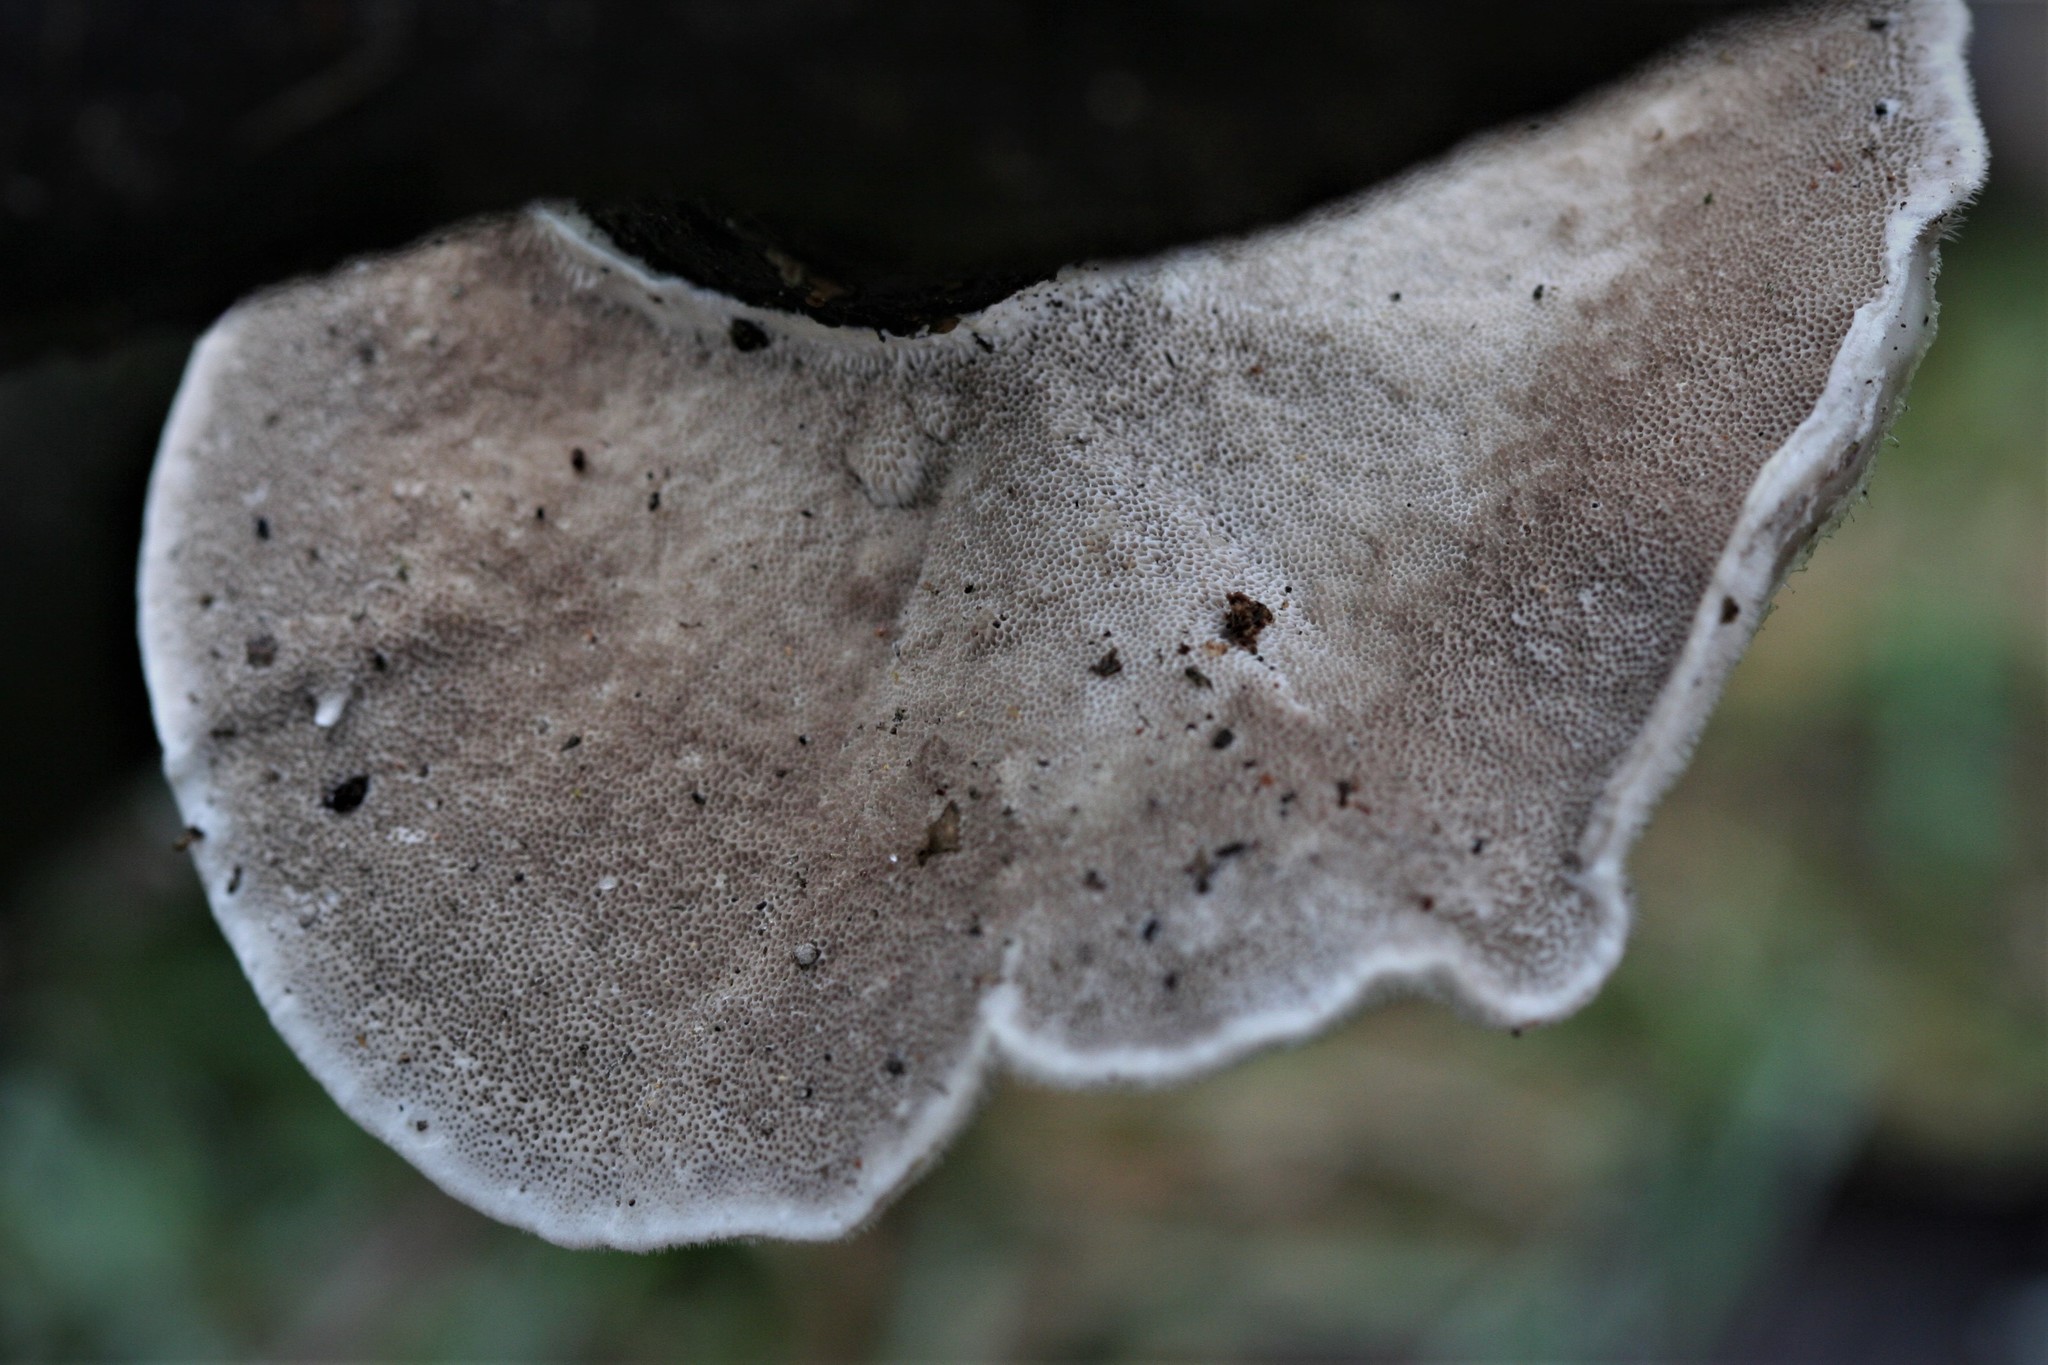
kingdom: Fungi
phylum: Basidiomycota
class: Agaricomycetes
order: Polyporales
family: Polyporaceae
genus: Trametes
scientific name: Trametes hirsuta
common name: Hairy bracket
